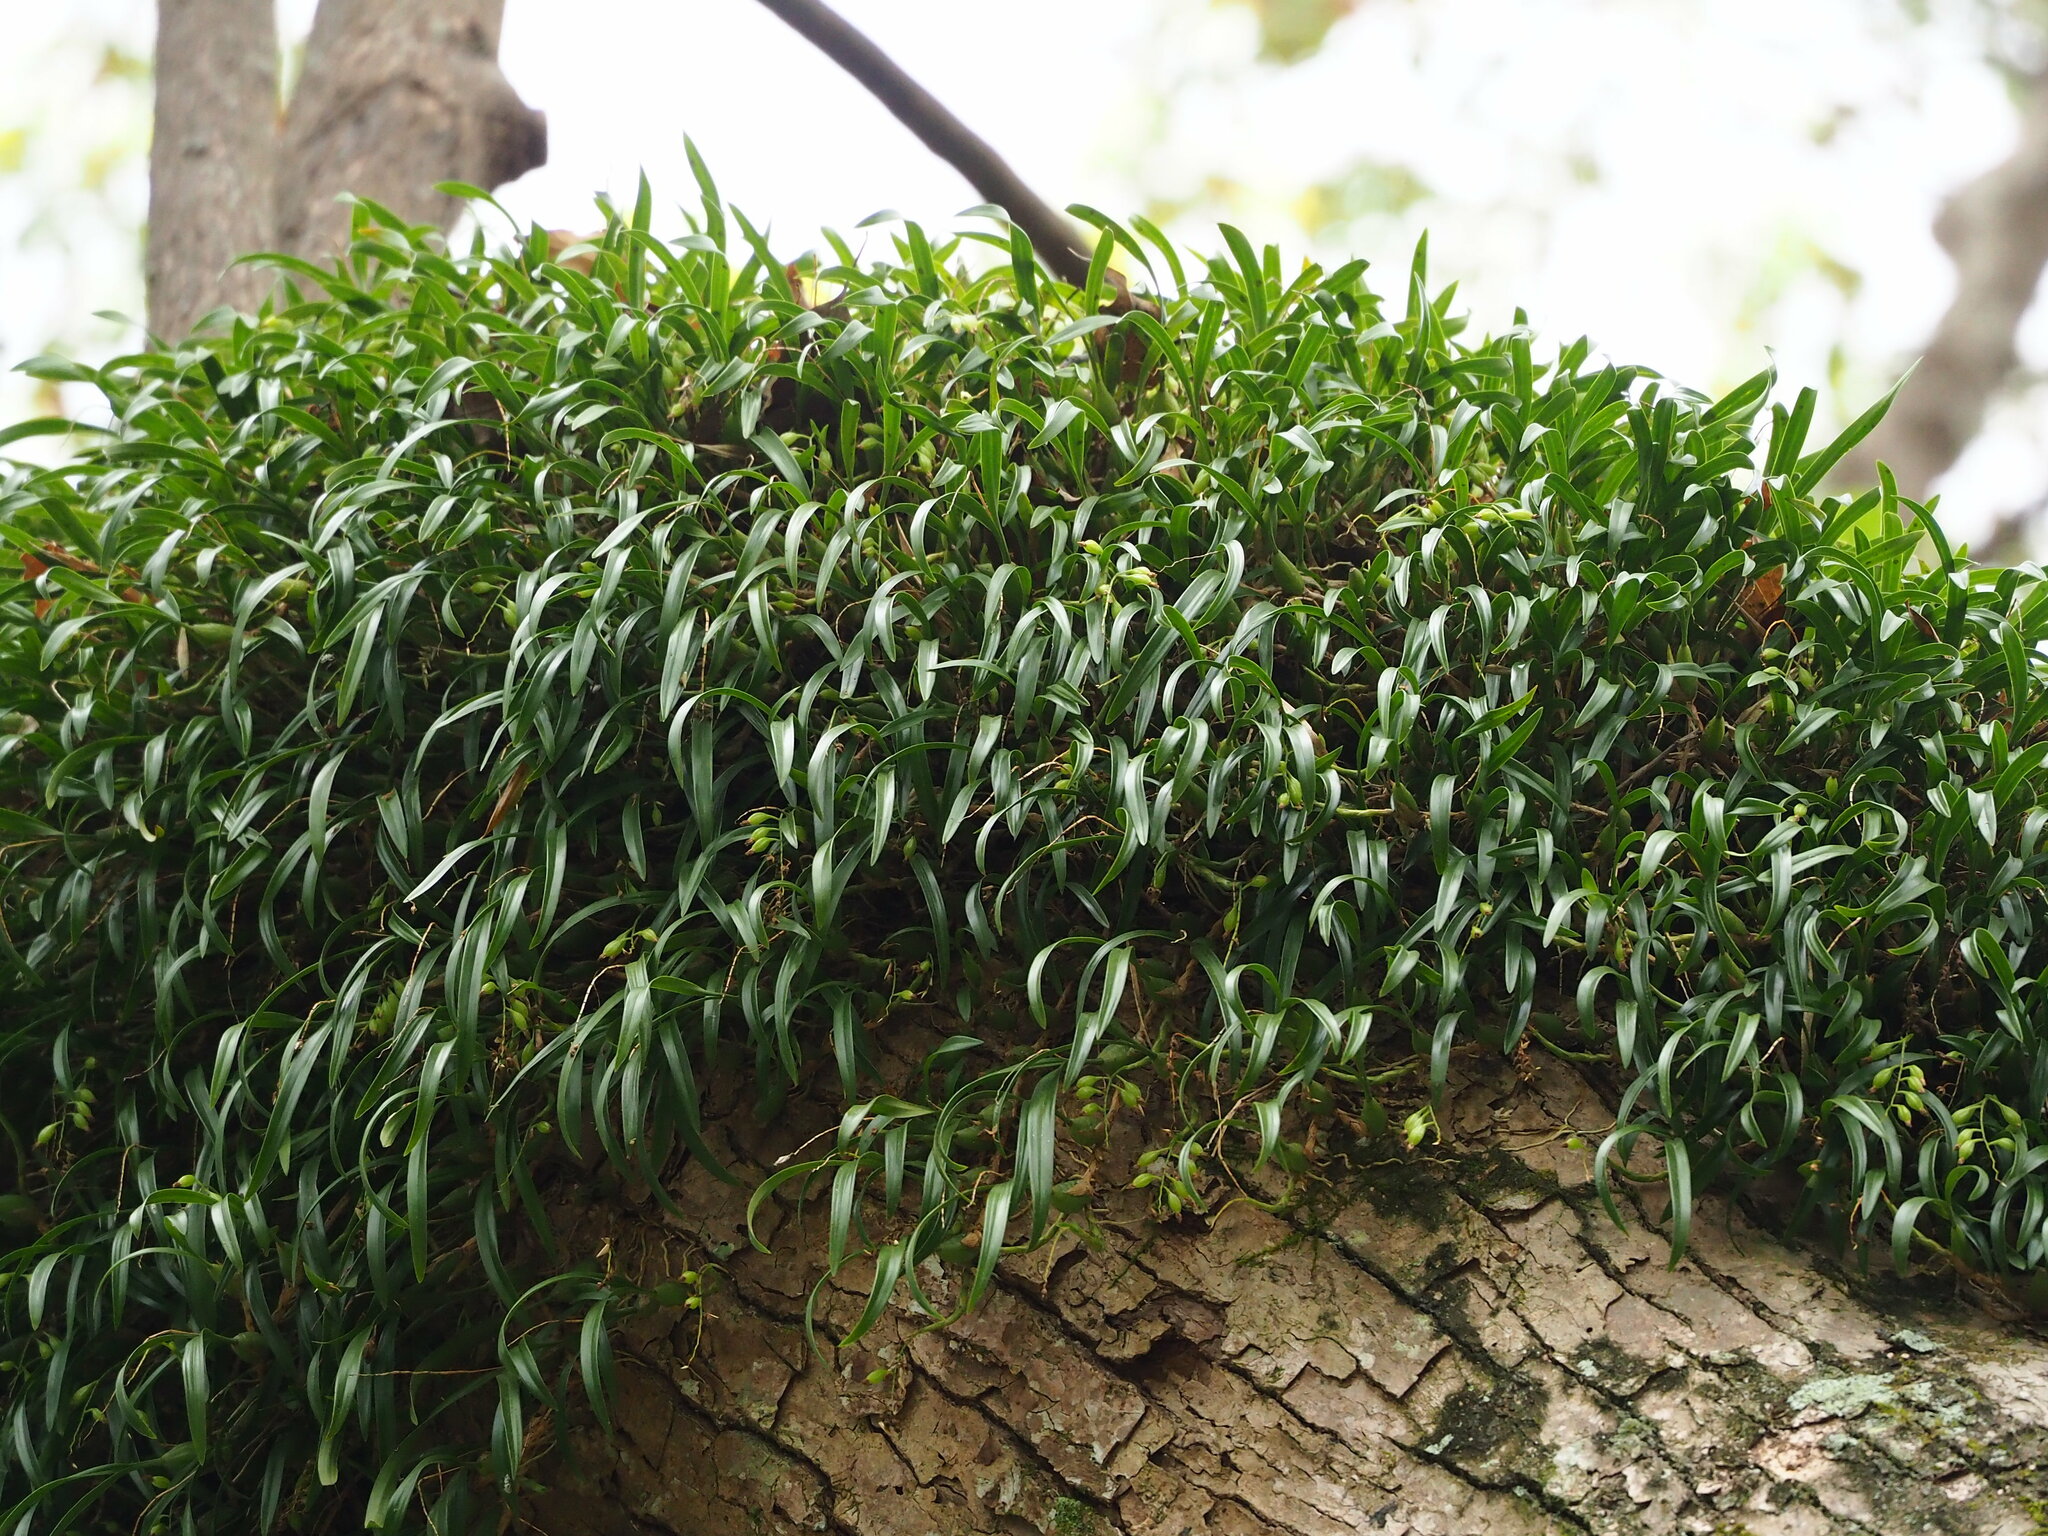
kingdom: Plantae
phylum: Tracheophyta
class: Liliopsida
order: Asparagales
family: Orchidaceae
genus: Coelogyne
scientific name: Coelogyne cantonensis
